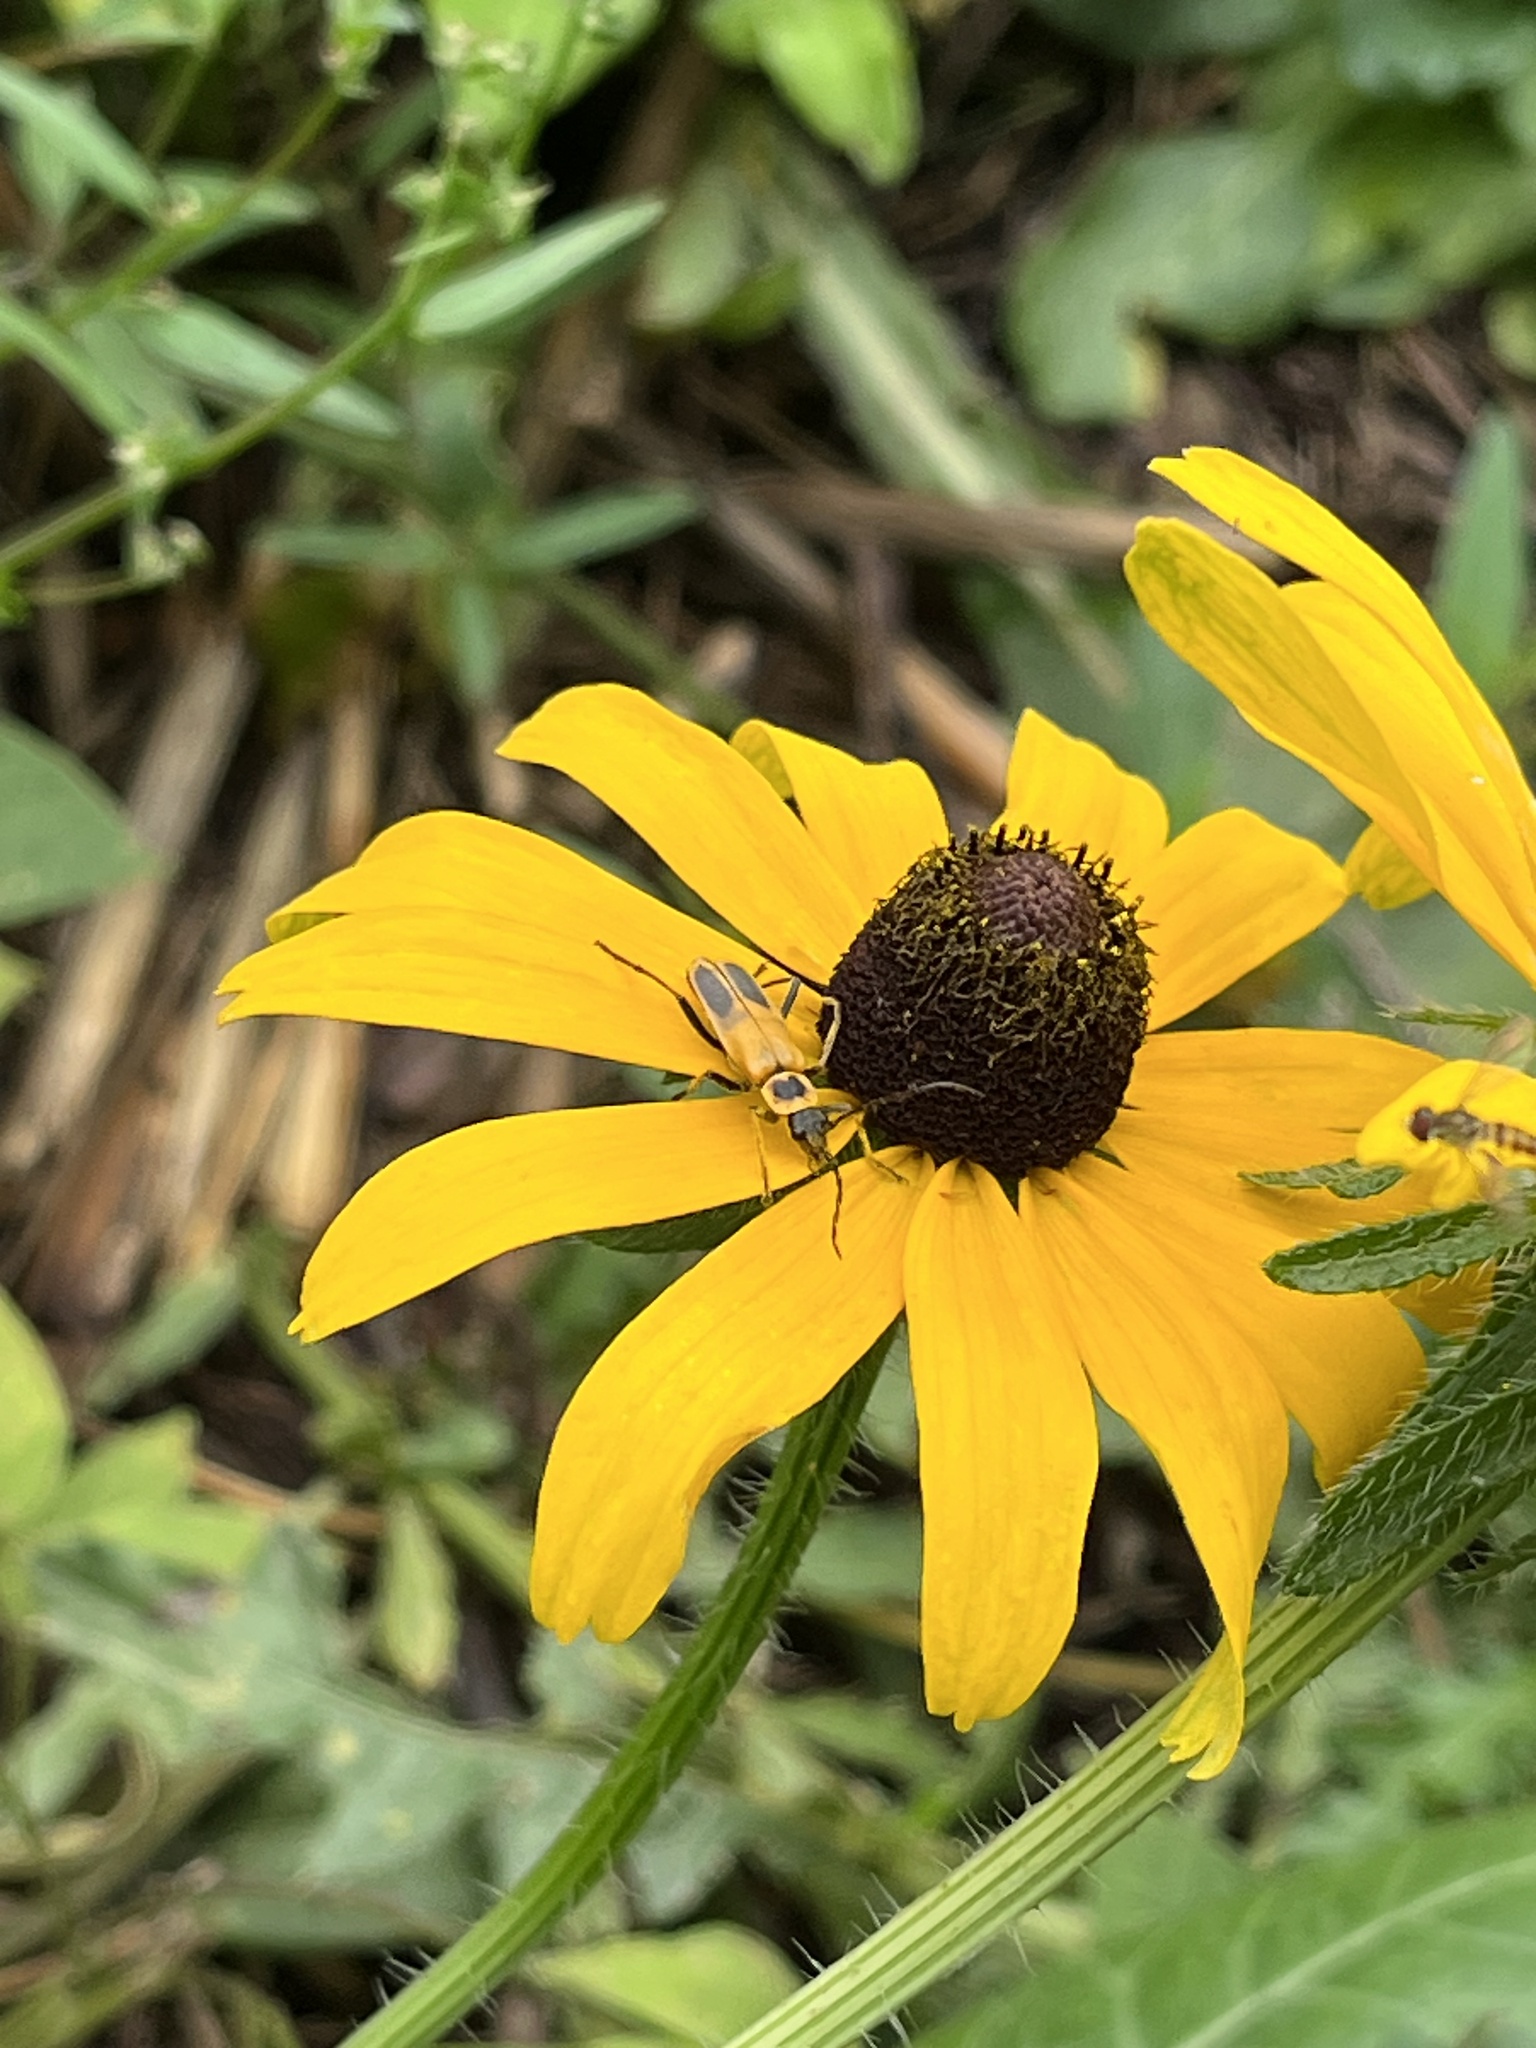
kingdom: Animalia
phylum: Arthropoda
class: Insecta
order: Coleoptera
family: Cantharidae
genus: Chauliognathus
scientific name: Chauliognathus pensylvanicus
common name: Goldenrod soldier beetle
